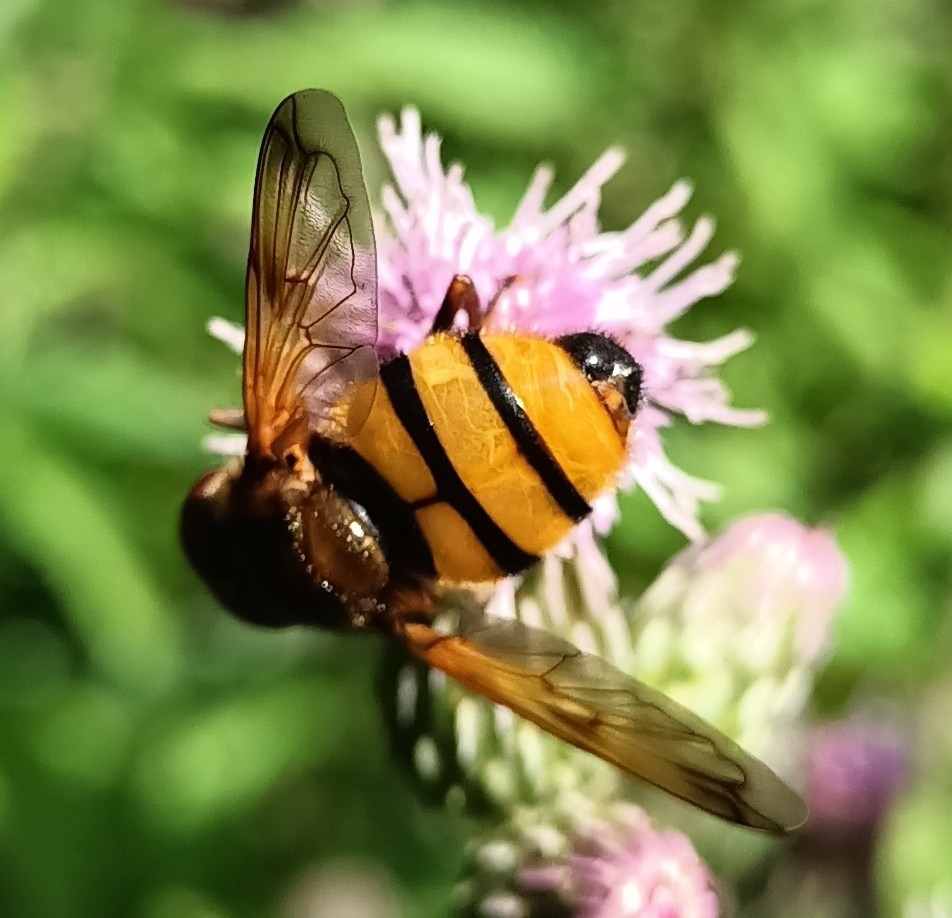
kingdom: Animalia
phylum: Arthropoda
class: Insecta
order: Diptera
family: Syrphidae
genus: Volucella
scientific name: Volucella inanis
